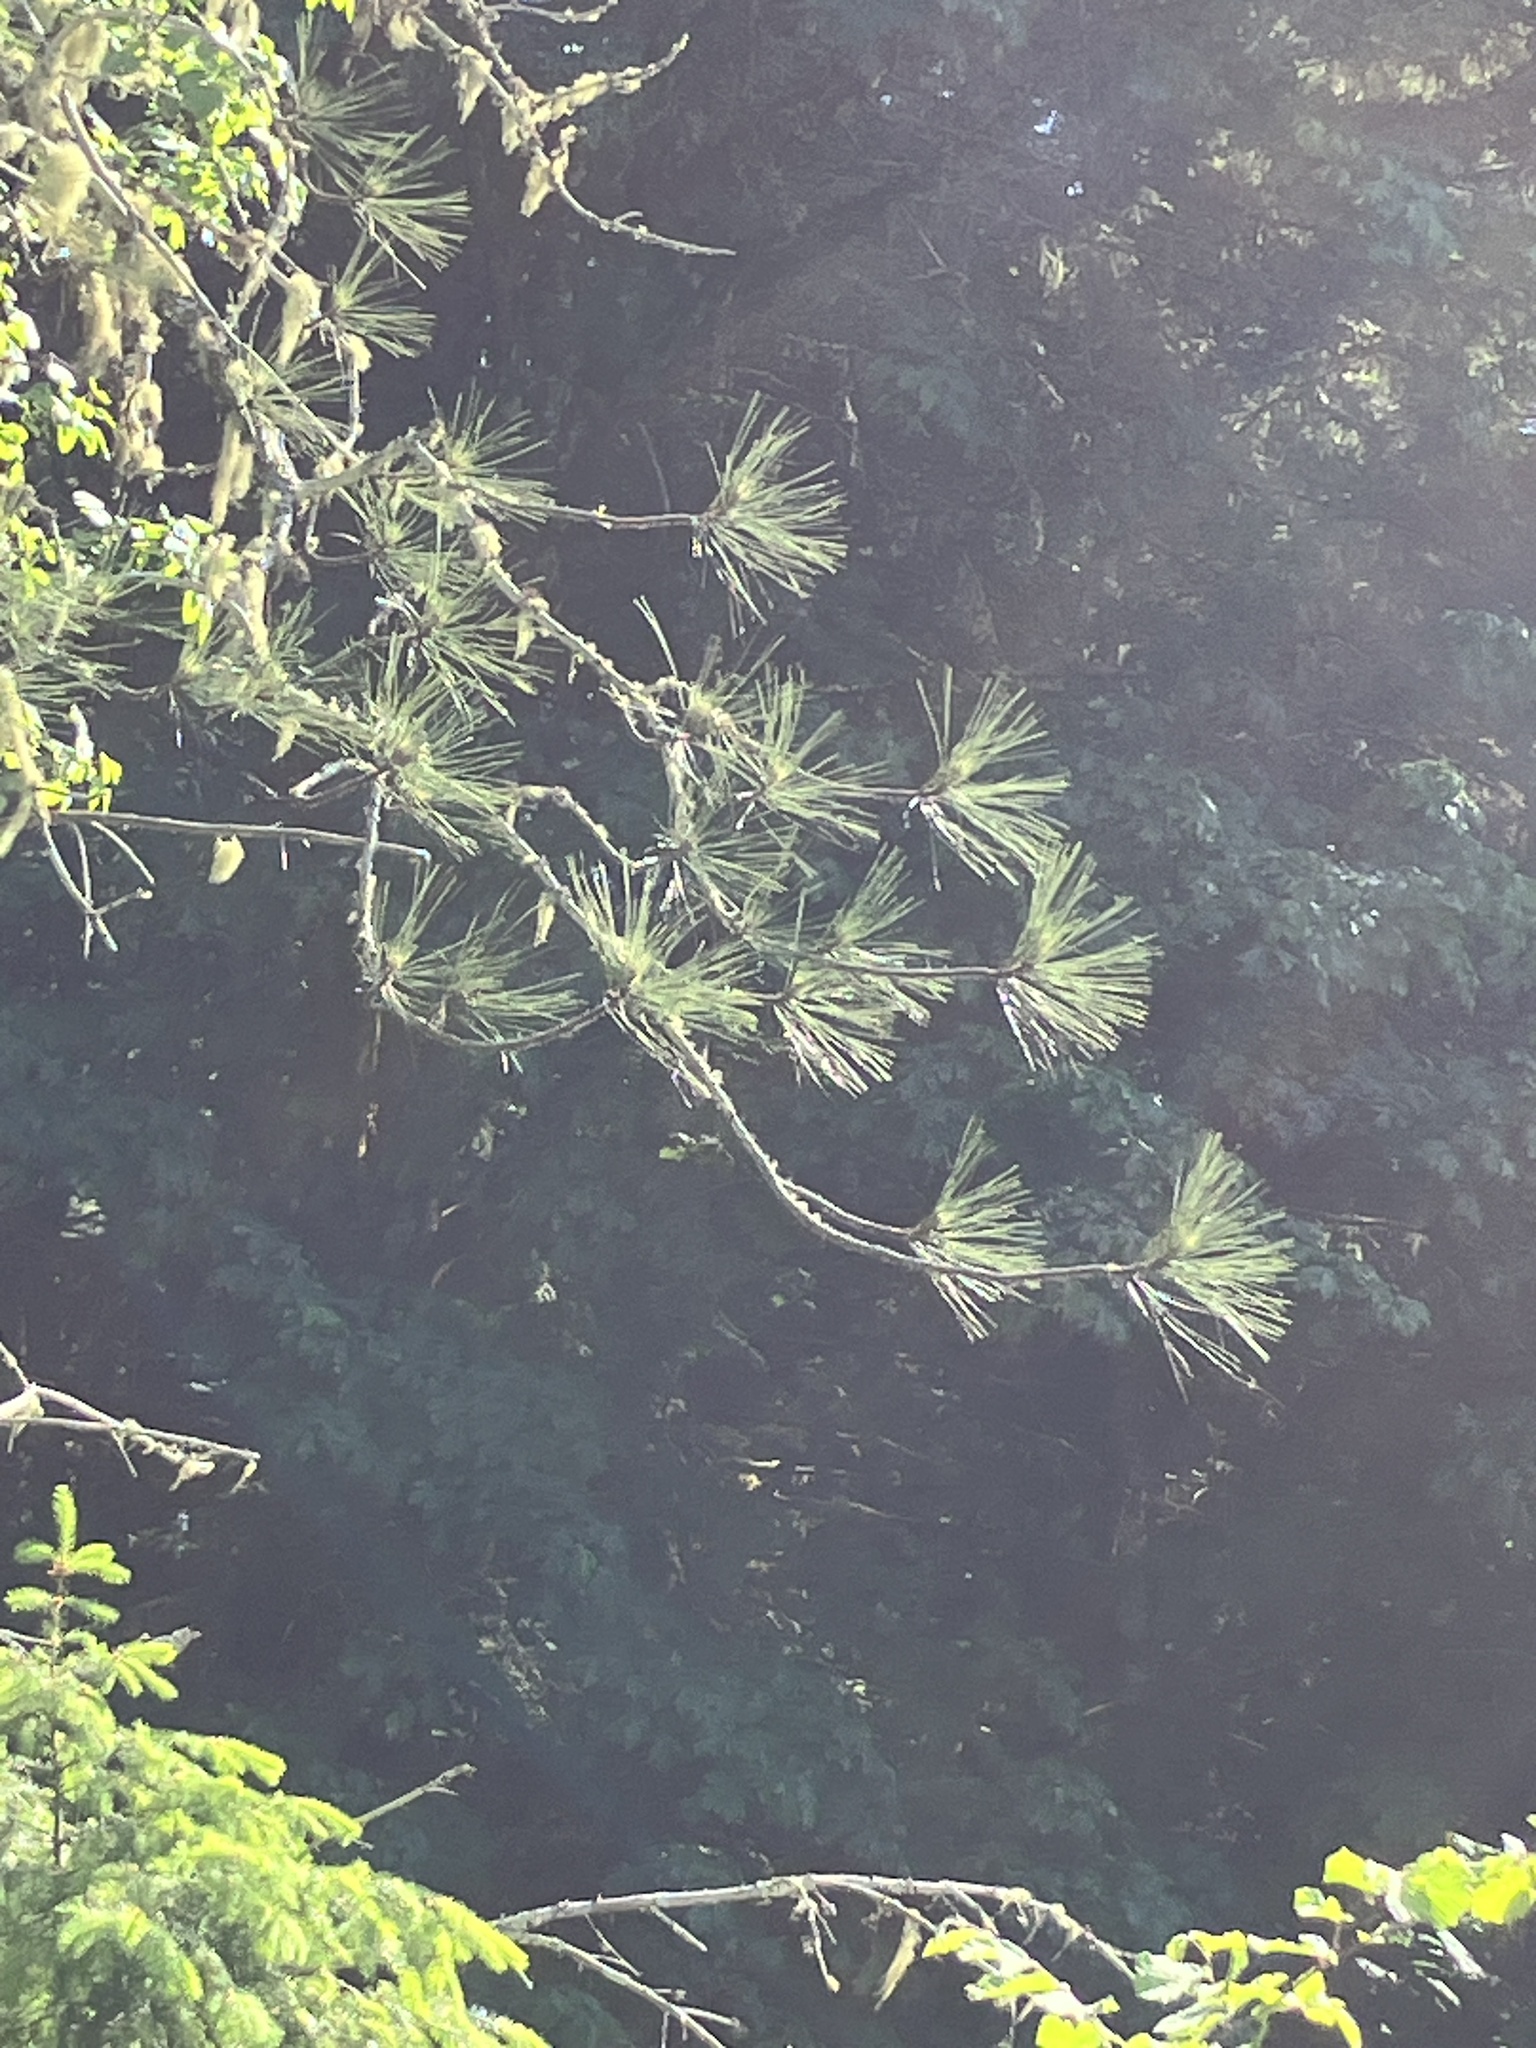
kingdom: Plantae
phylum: Tracheophyta
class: Pinopsida
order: Pinales
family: Pinaceae
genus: Pinus
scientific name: Pinus ponderosa
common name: Western yellow-pine
